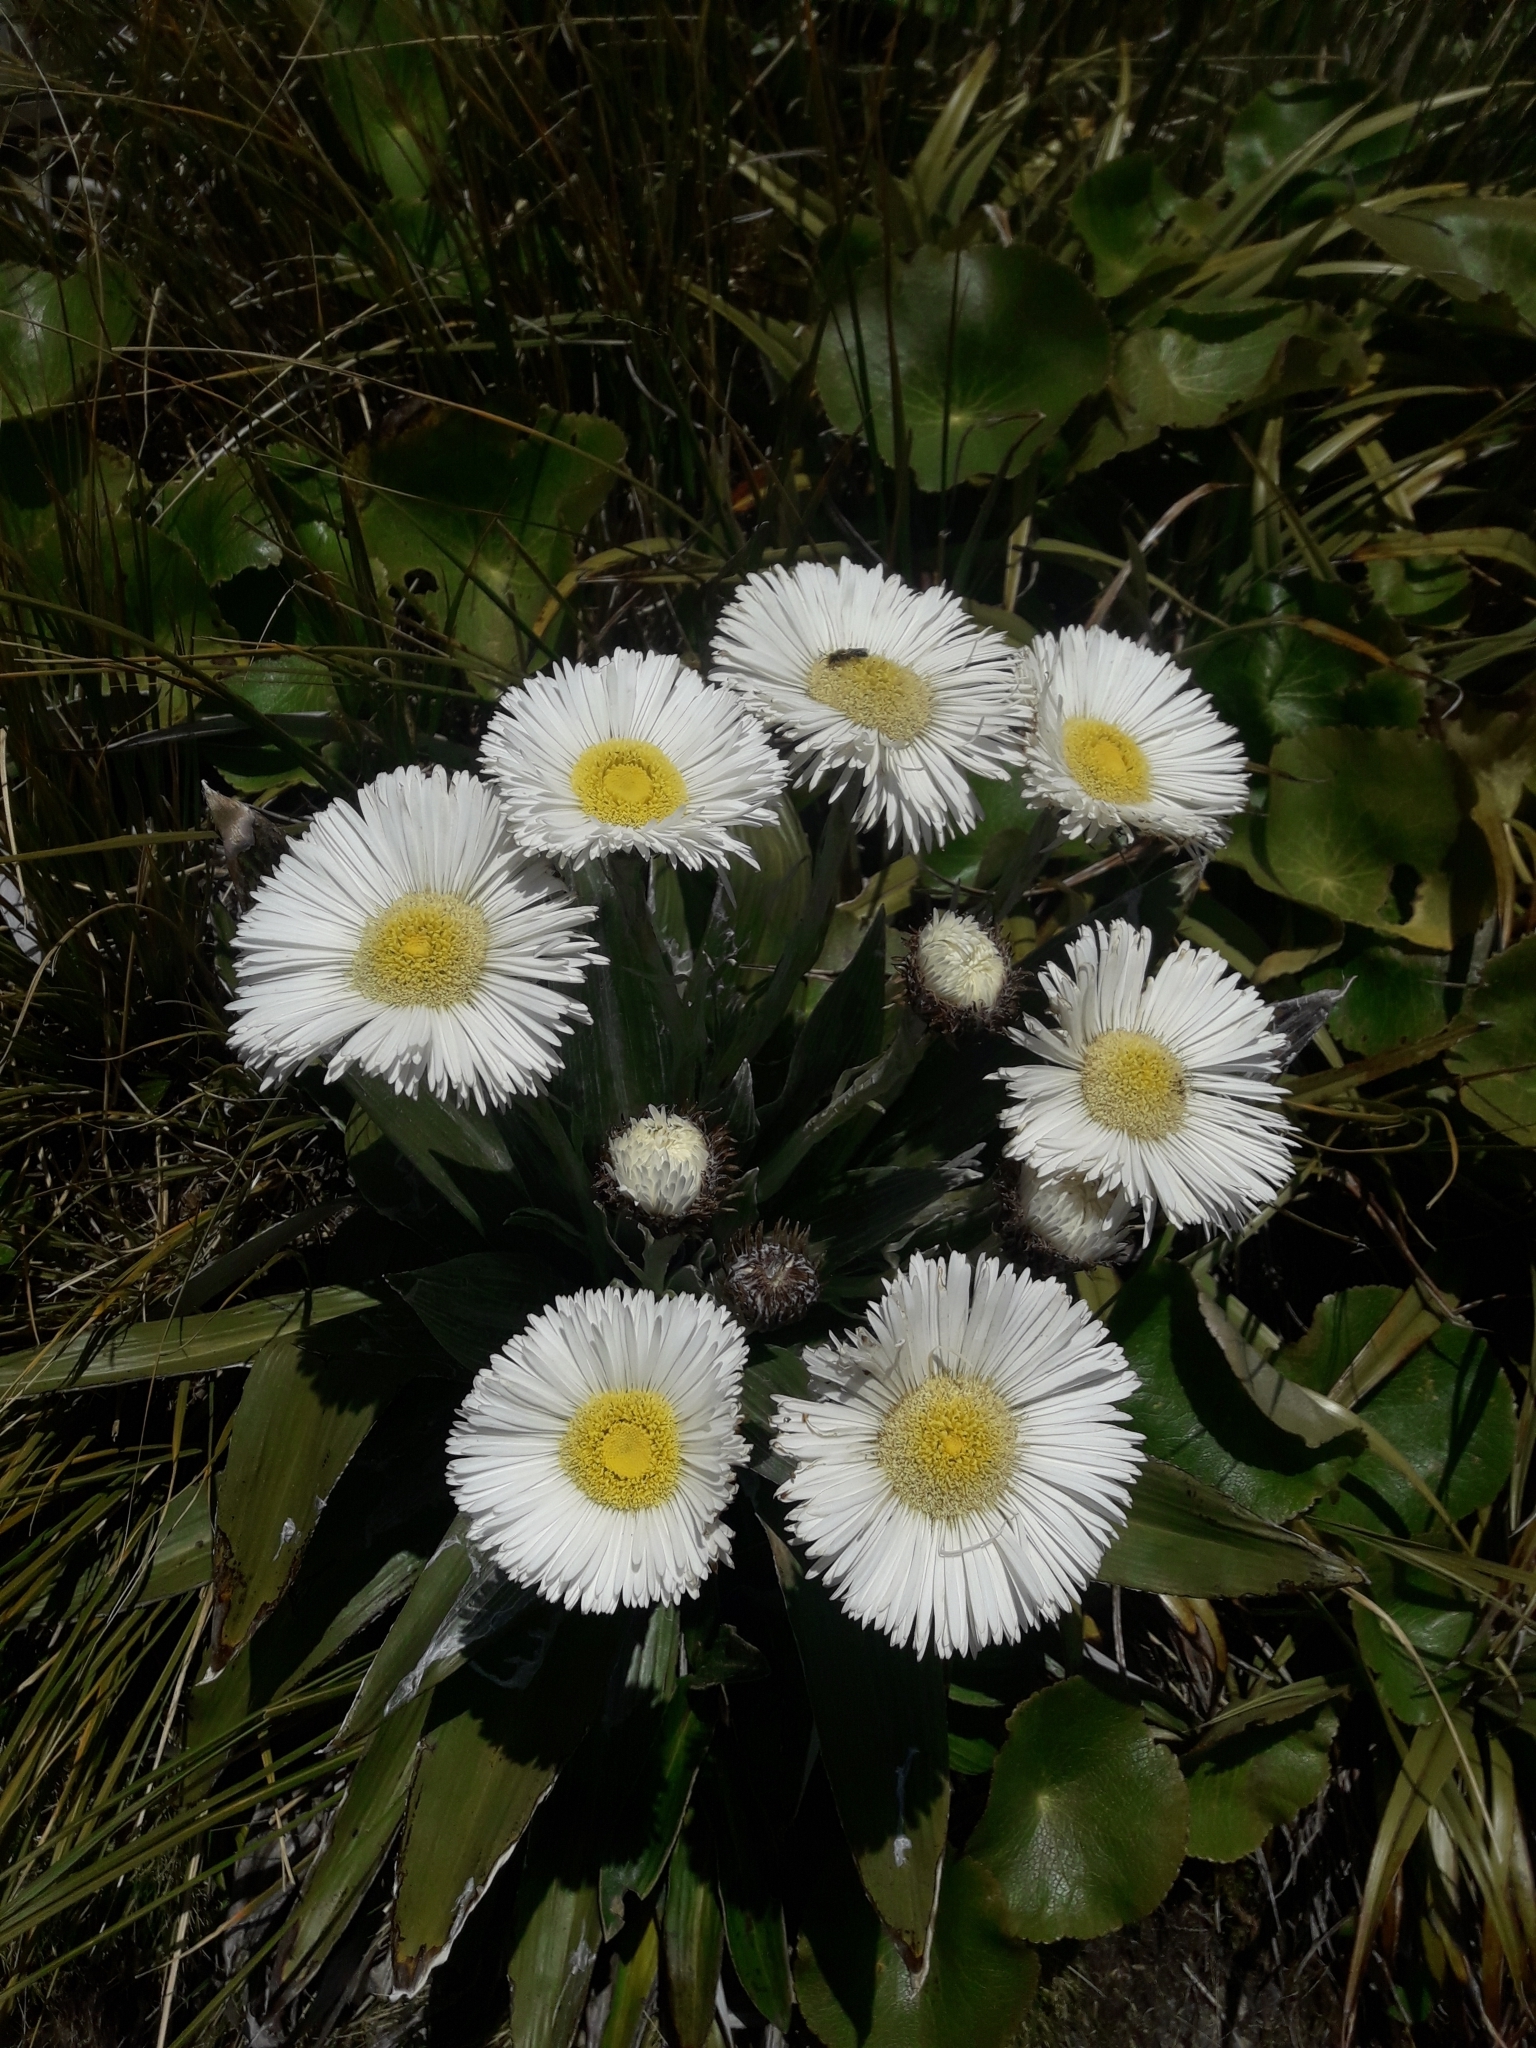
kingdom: Plantae
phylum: Tracheophyta
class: Magnoliopsida
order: Asterales
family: Asteraceae
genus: Celmisia
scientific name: Celmisia semicordata
